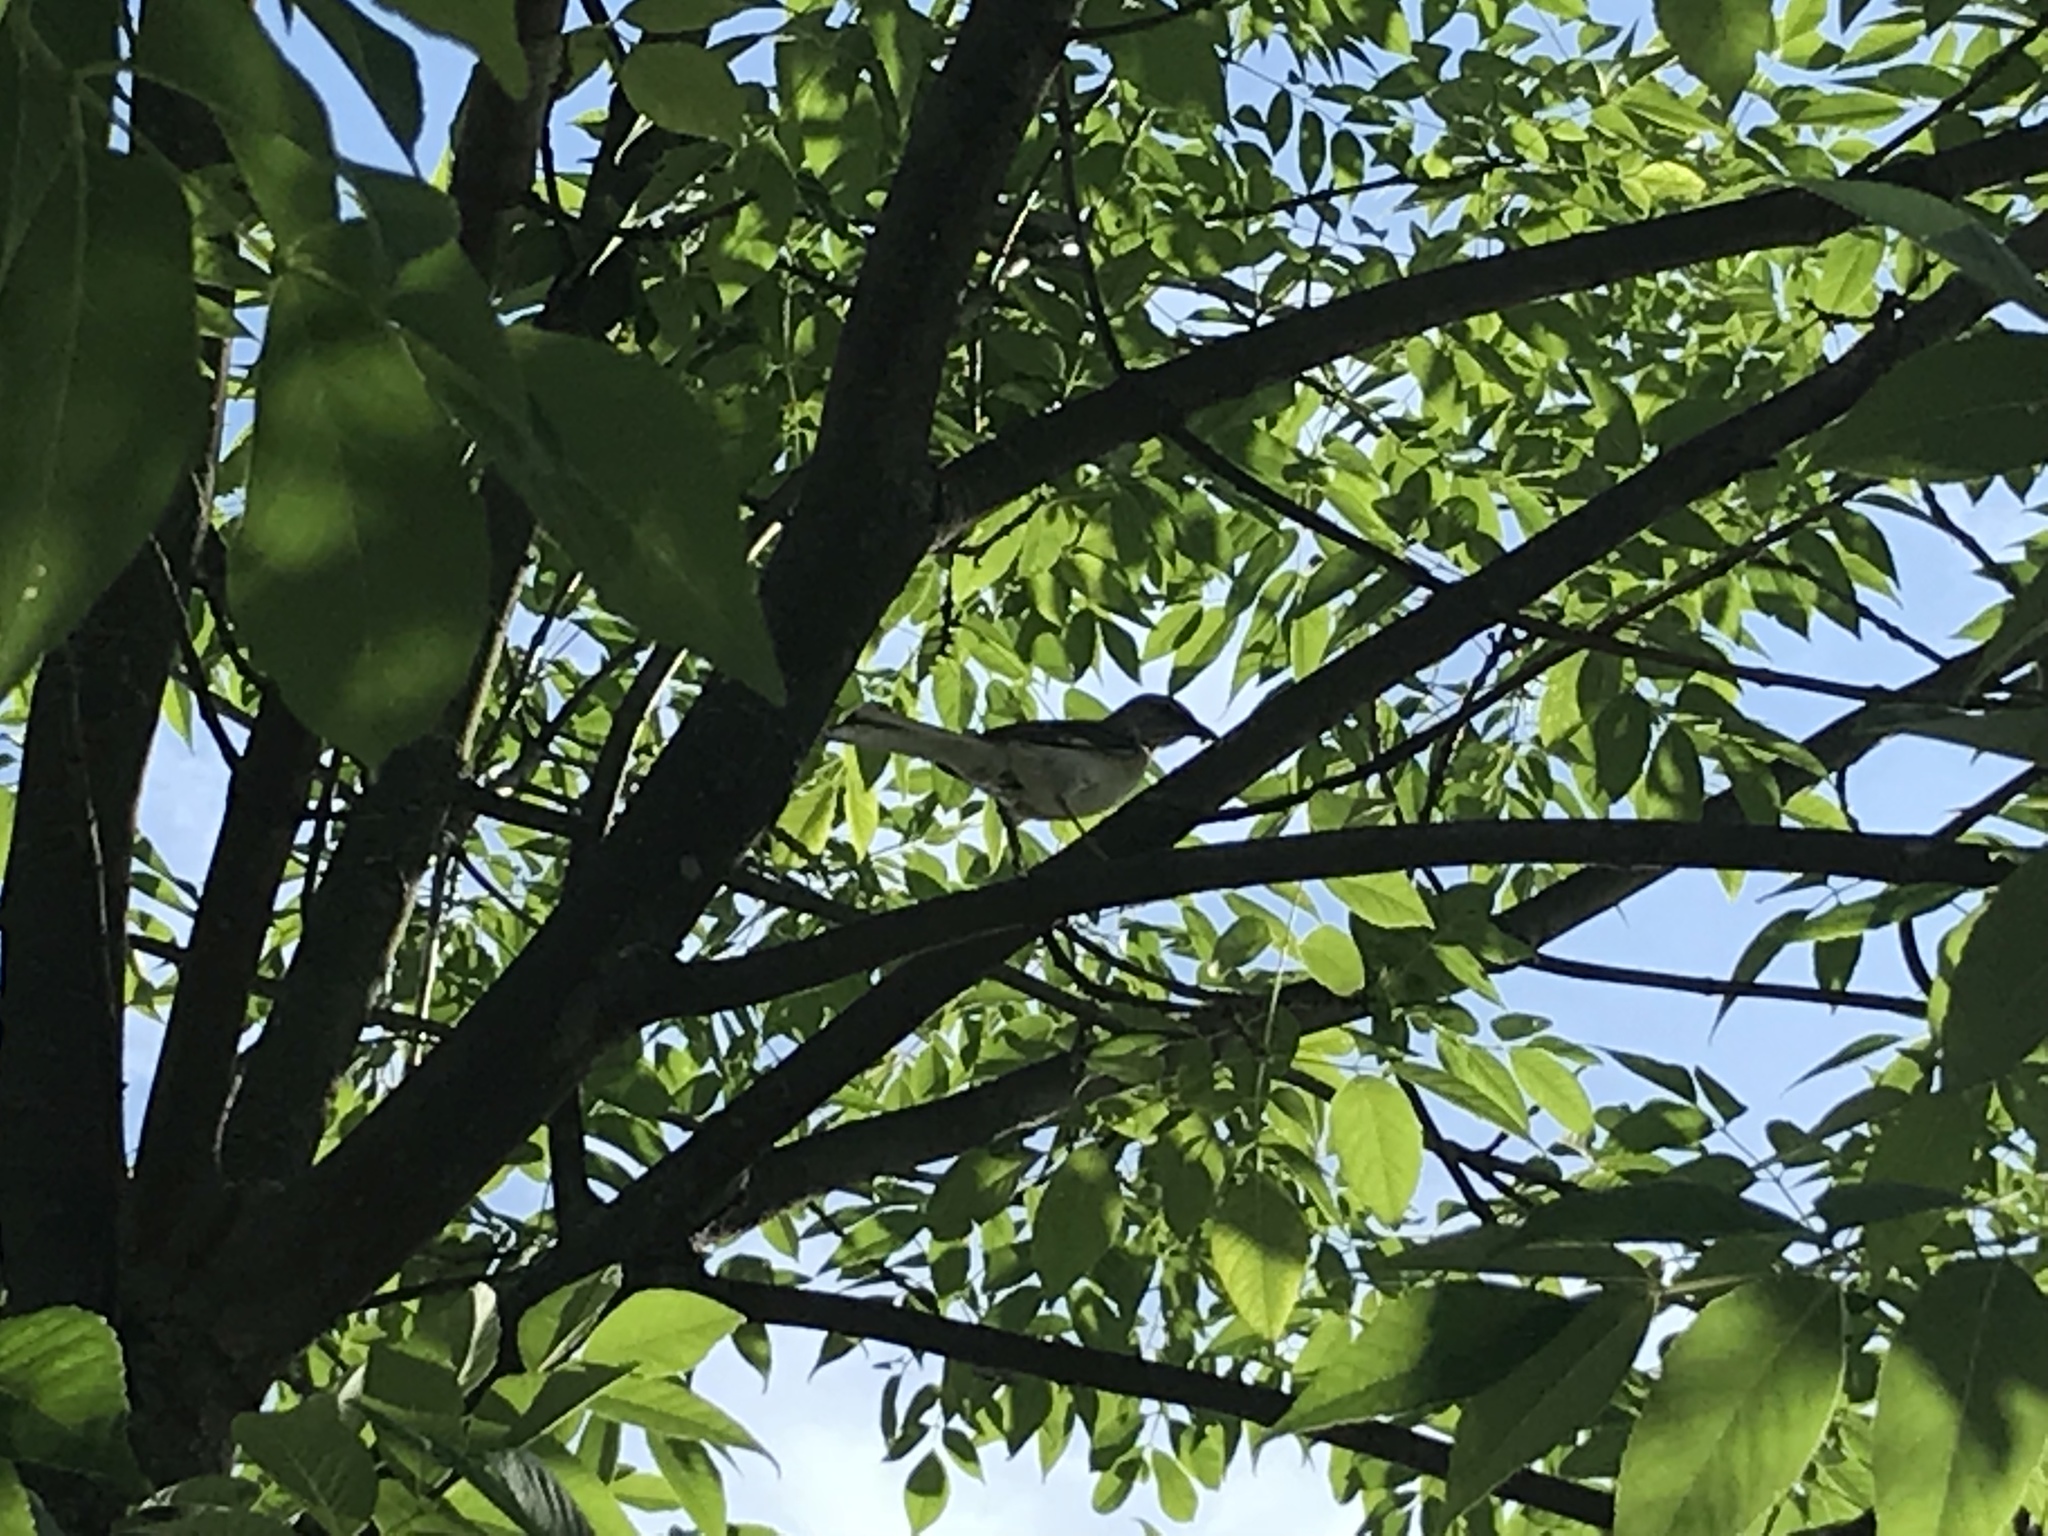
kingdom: Animalia
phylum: Chordata
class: Aves
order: Passeriformes
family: Mimidae
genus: Mimus
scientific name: Mimus polyglottos
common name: Northern mockingbird
